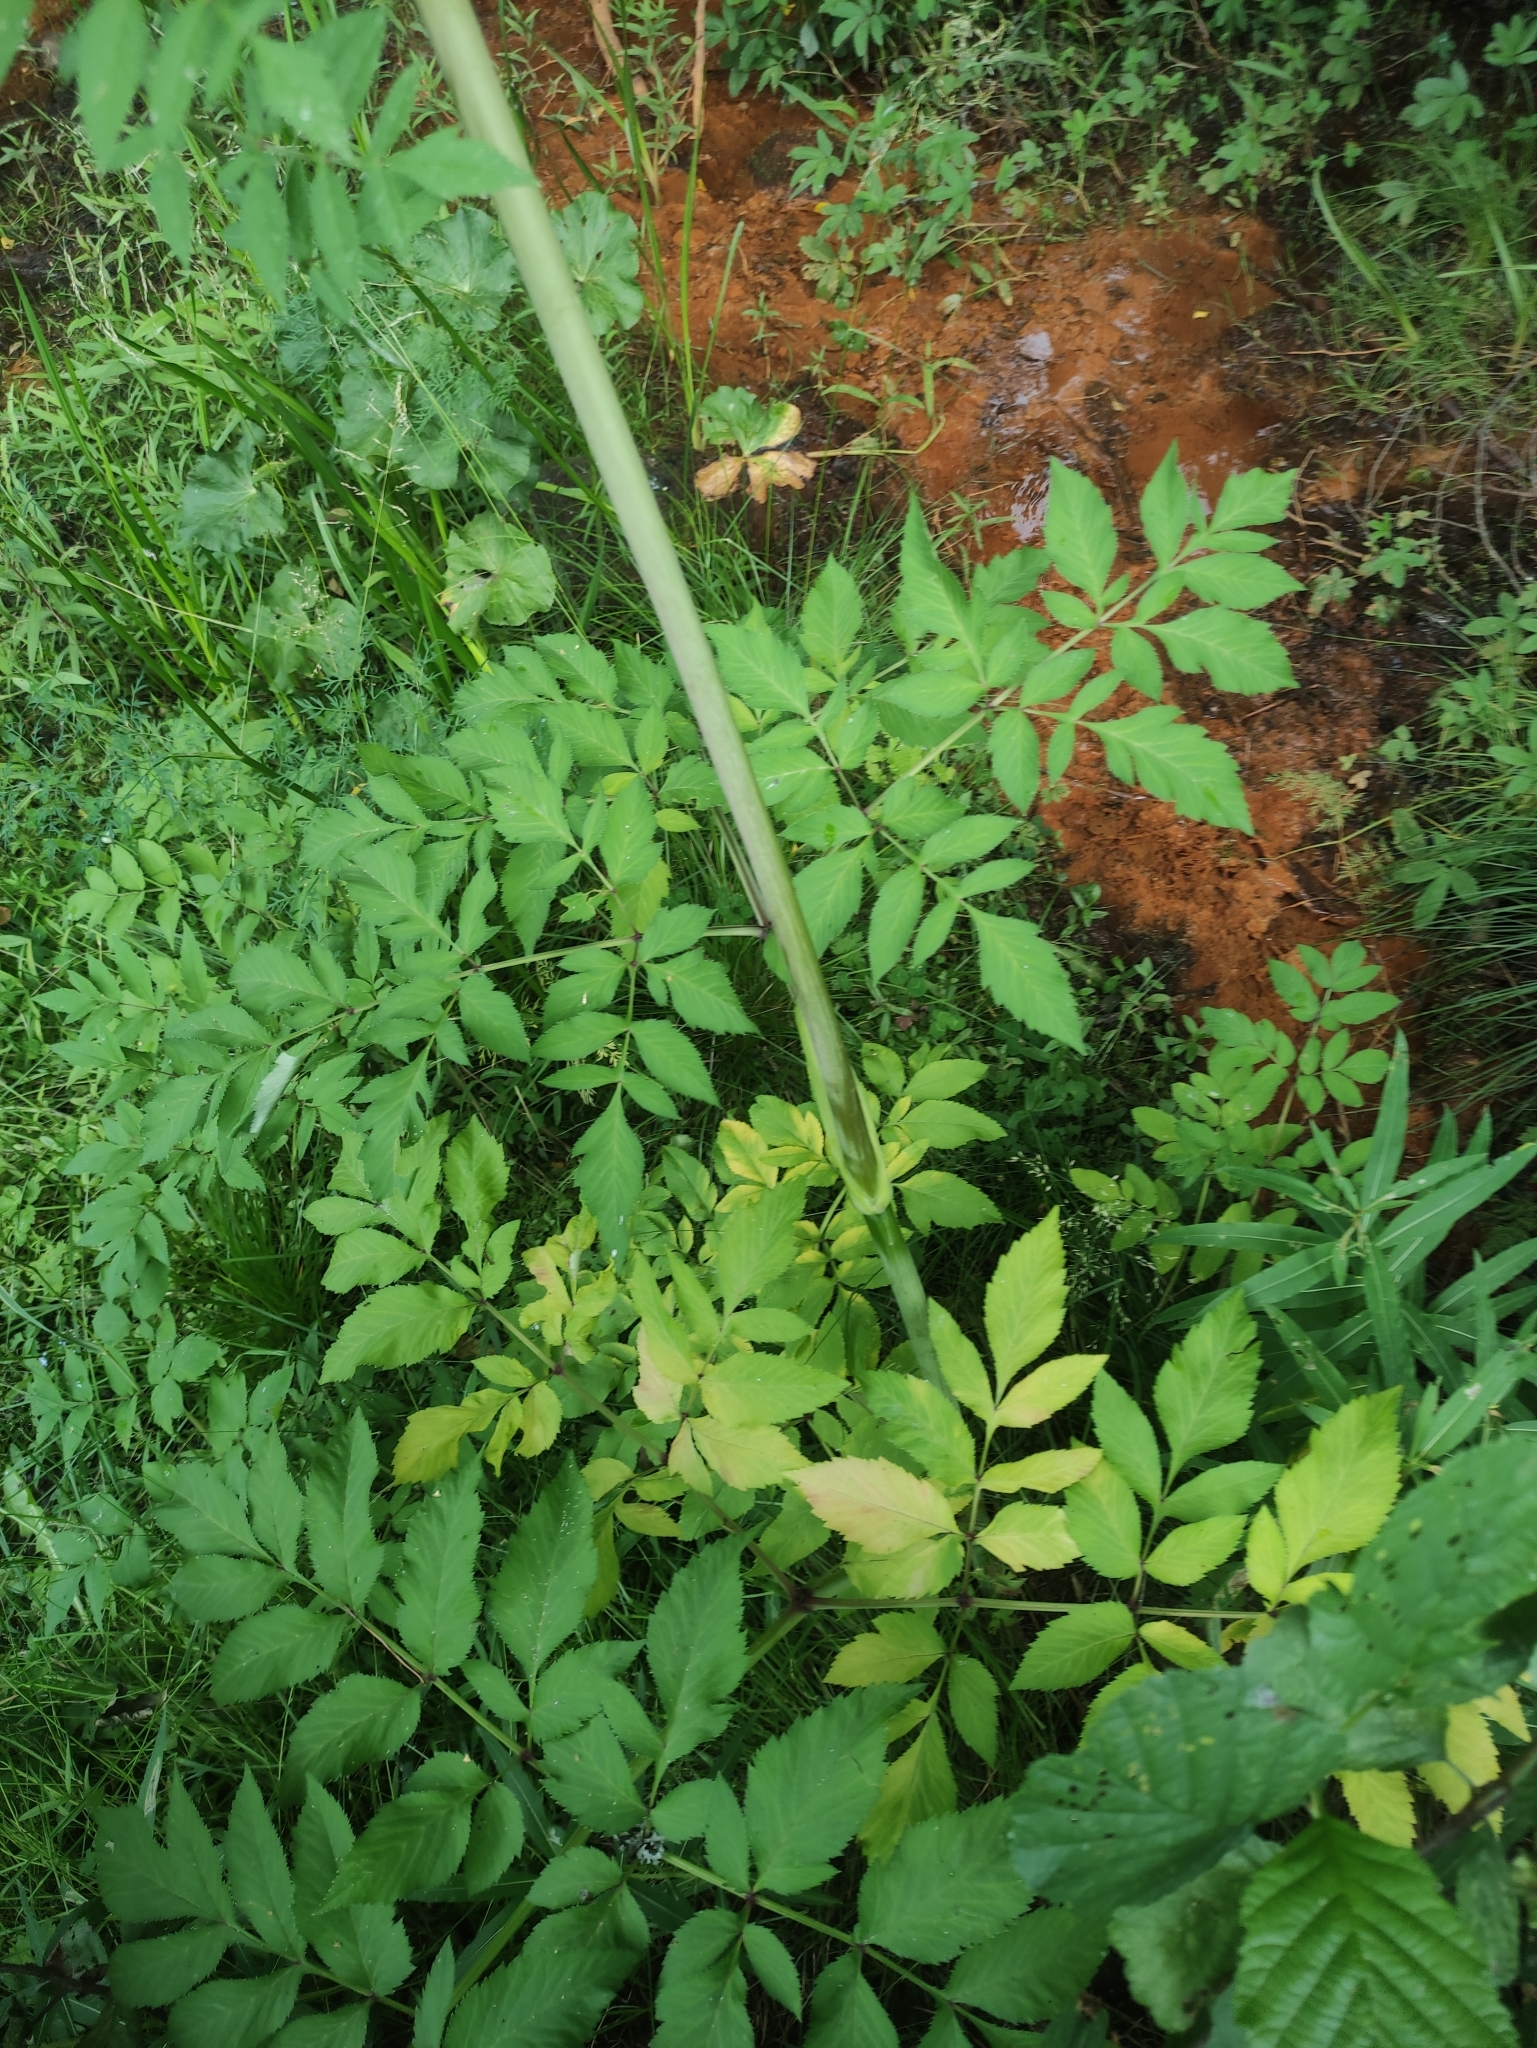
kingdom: Plantae
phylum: Tracheophyta
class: Magnoliopsida
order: Apiales
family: Apiaceae
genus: Angelica
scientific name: Angelica sylvestris
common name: Wild angelica
